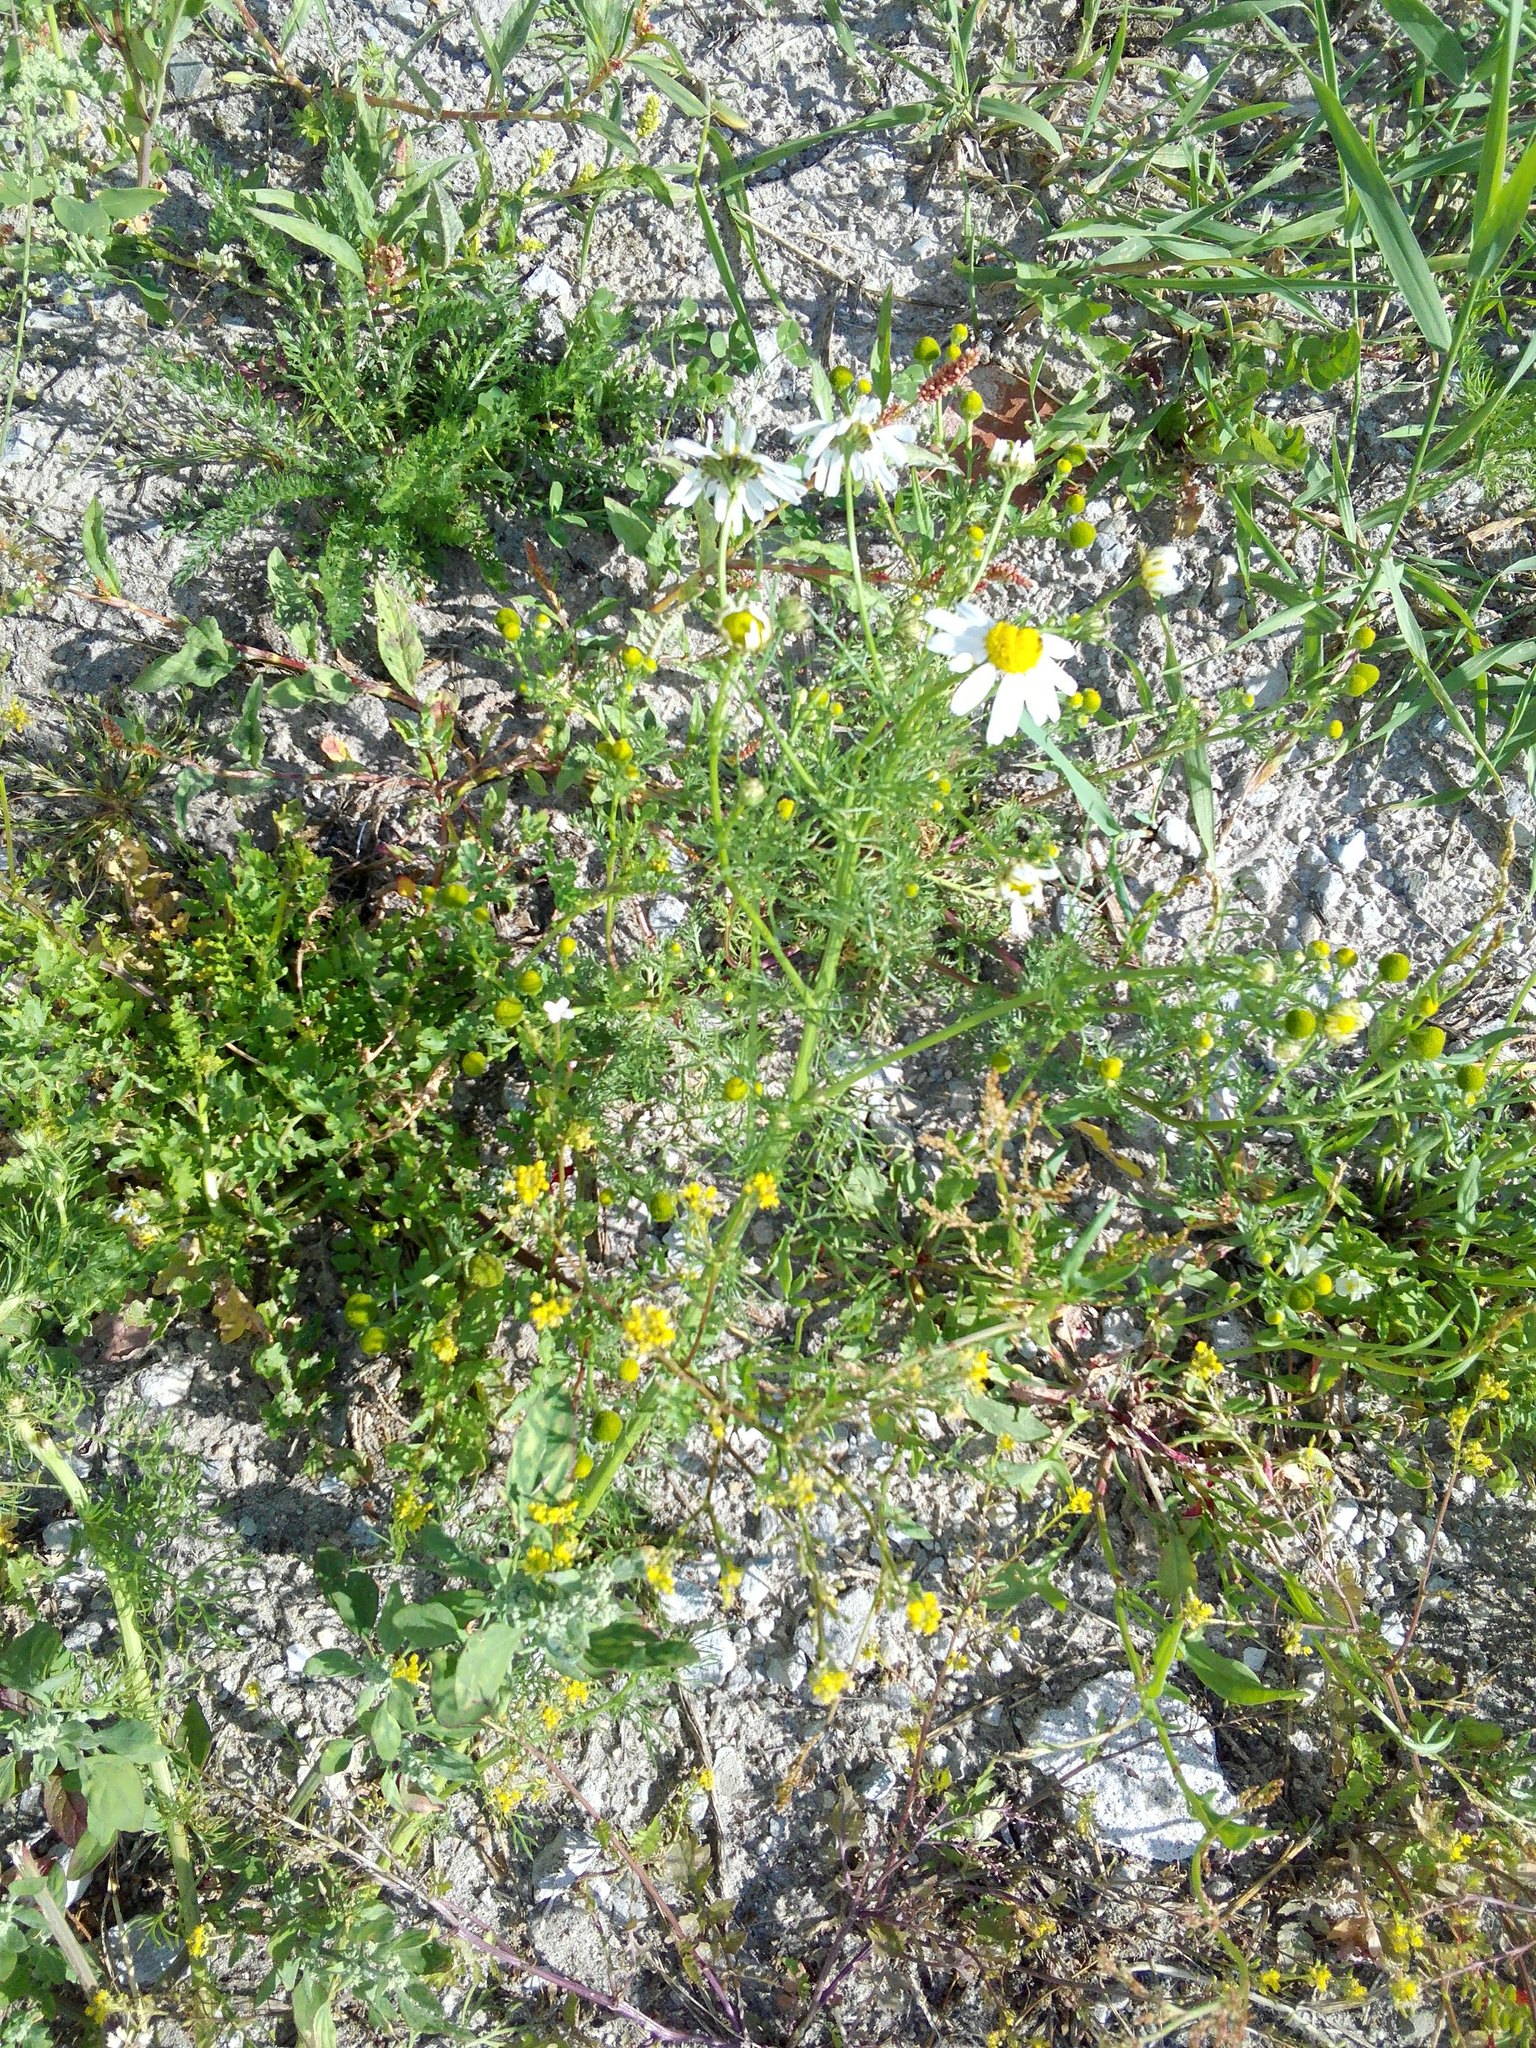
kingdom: Plantae
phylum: Tracheophyta
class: Magnoliopsida
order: Asterales
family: Asteraceae
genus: Tripleurospermum
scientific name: Tripleurospermum inodorum
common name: Scentless mayweed
